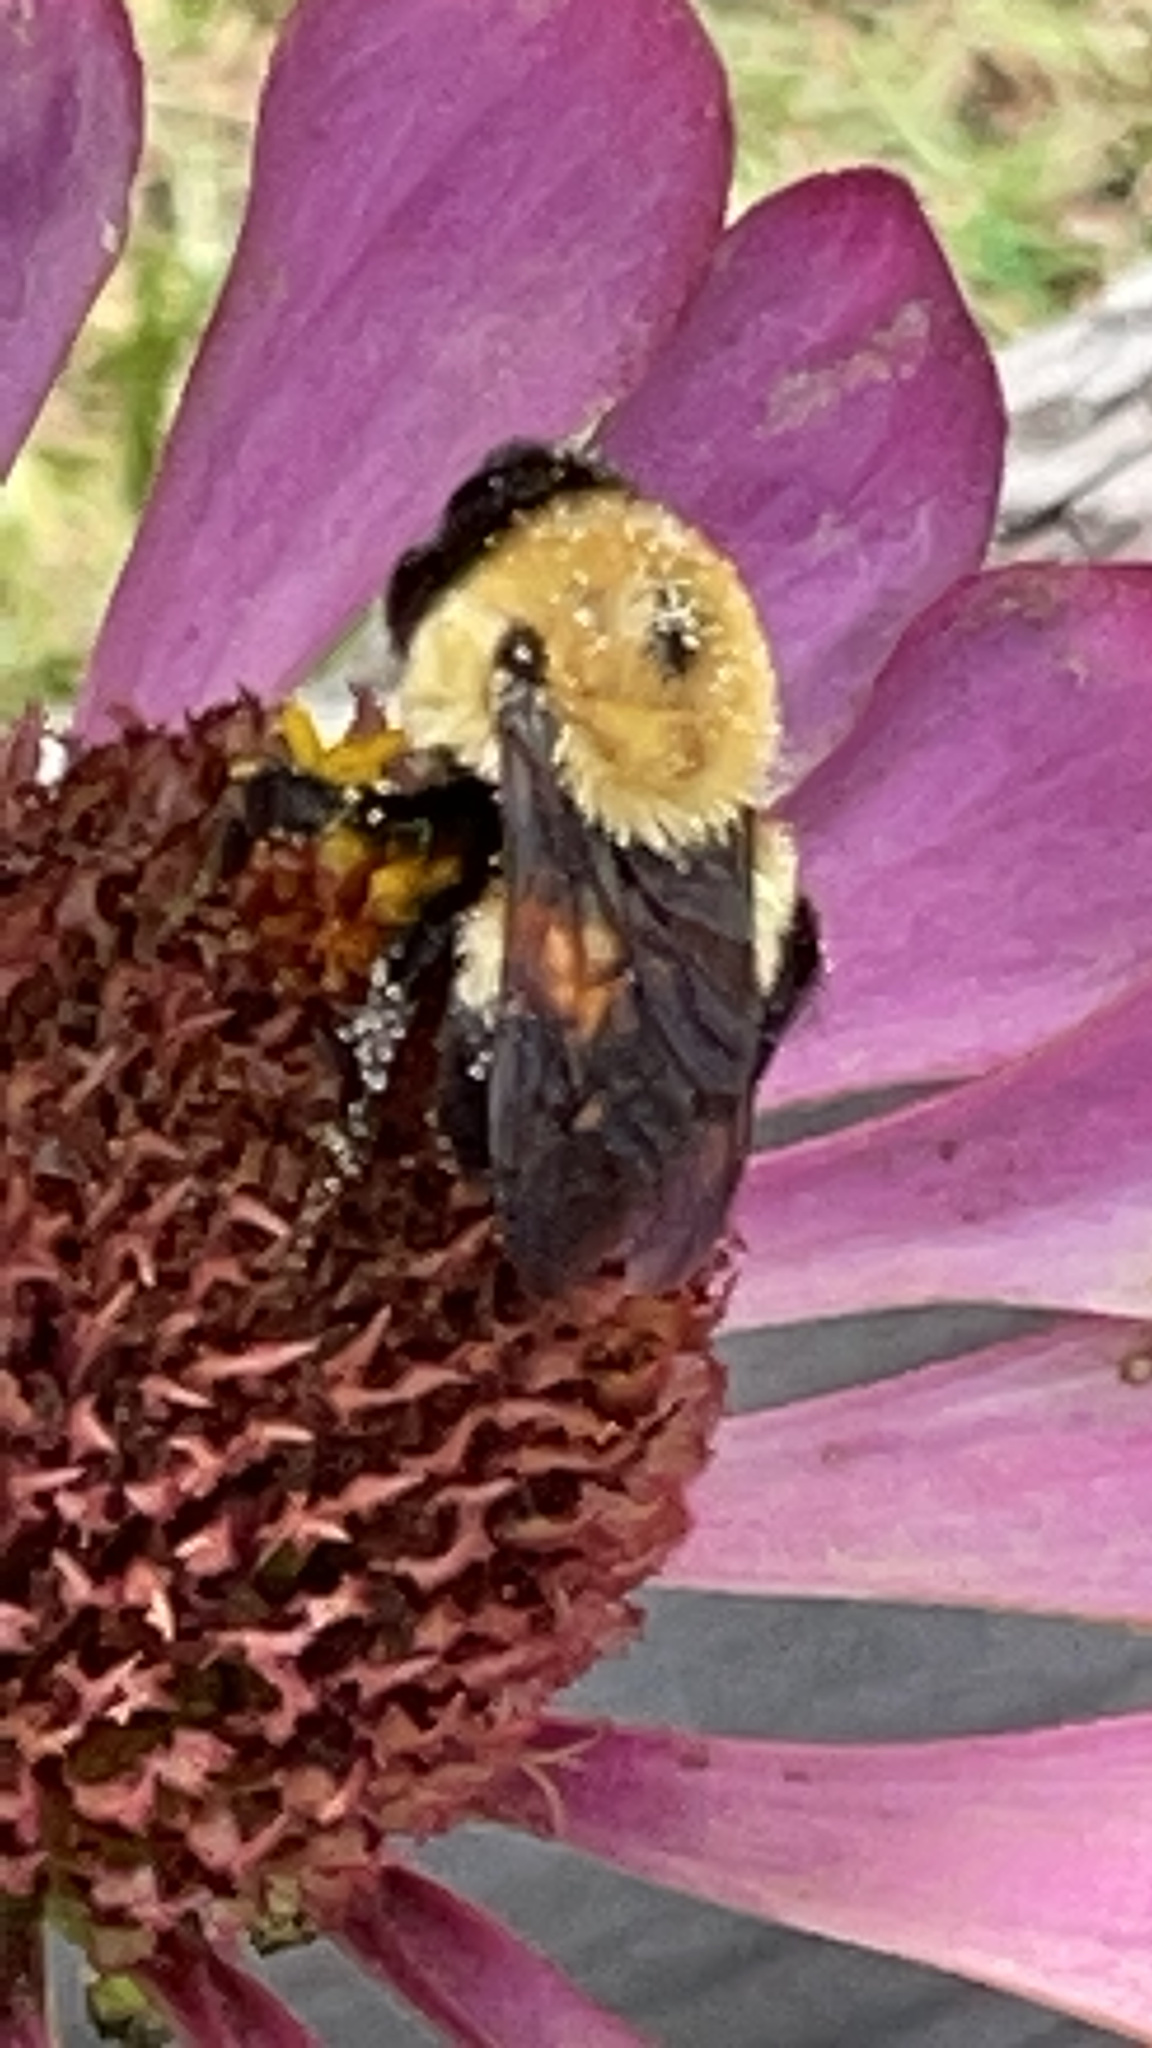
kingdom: Animalia
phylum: Arthropoda
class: Insecta
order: Hymenoptera
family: Apidae
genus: Bombus
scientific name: Bombus griseocollis
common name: Brown-belted bumble bee
